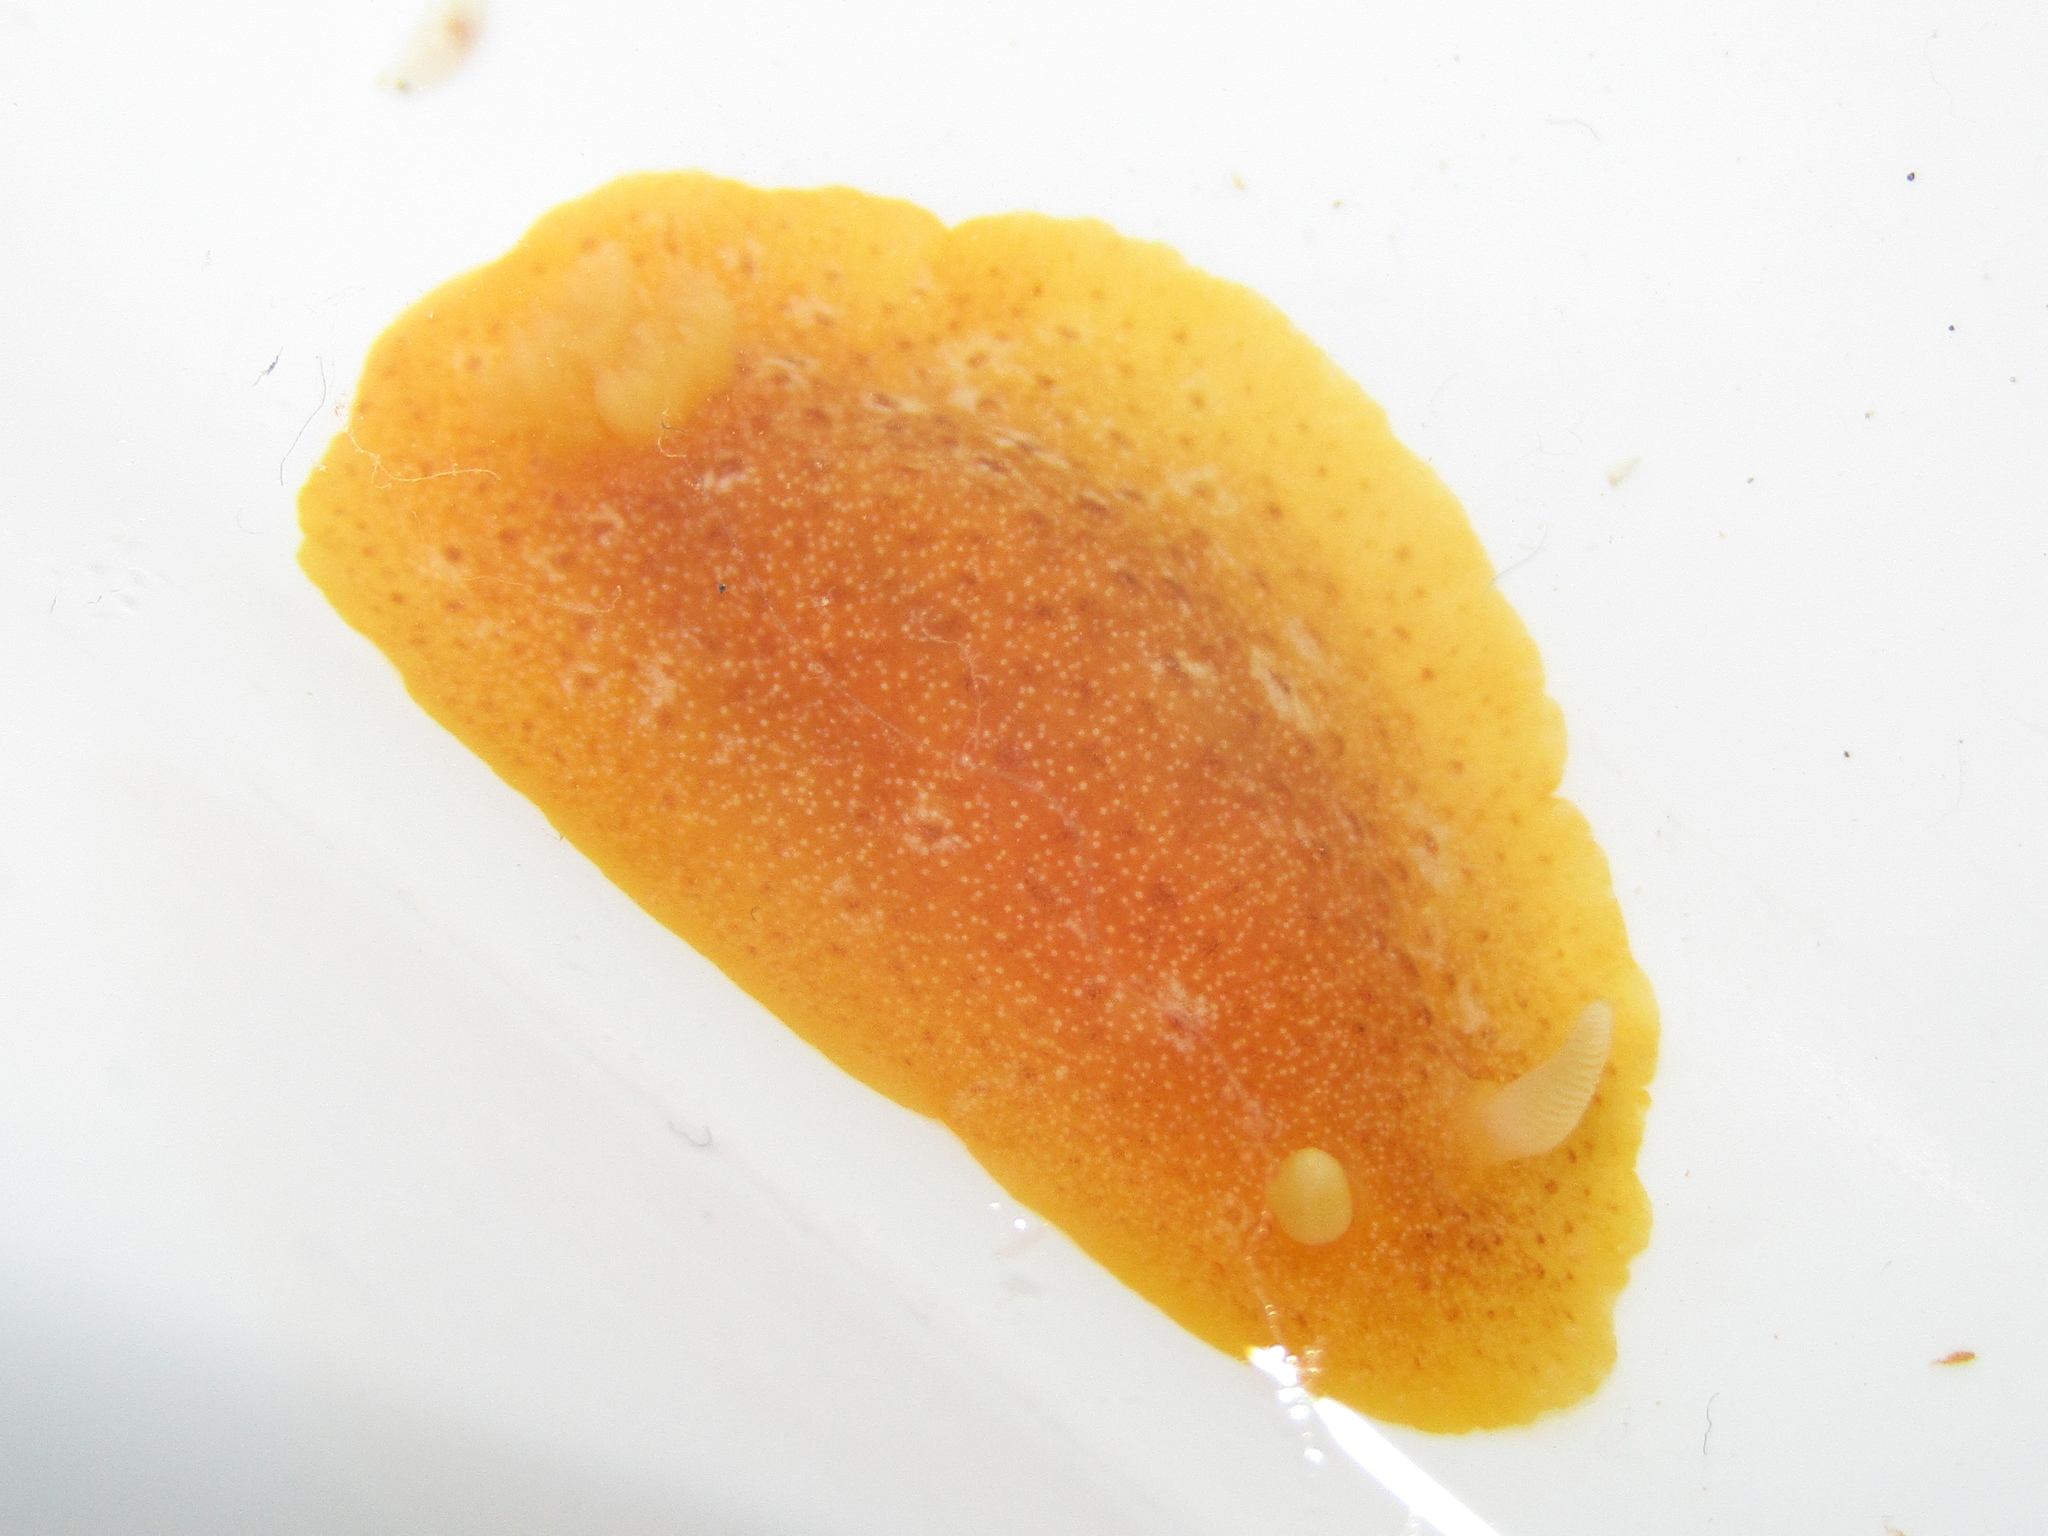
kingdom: Animalia
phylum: Mollusca
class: Gastropoda
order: Nudibranchia
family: Dendrodorididae
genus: Dendrodoris
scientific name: Dendrodoris citrina
